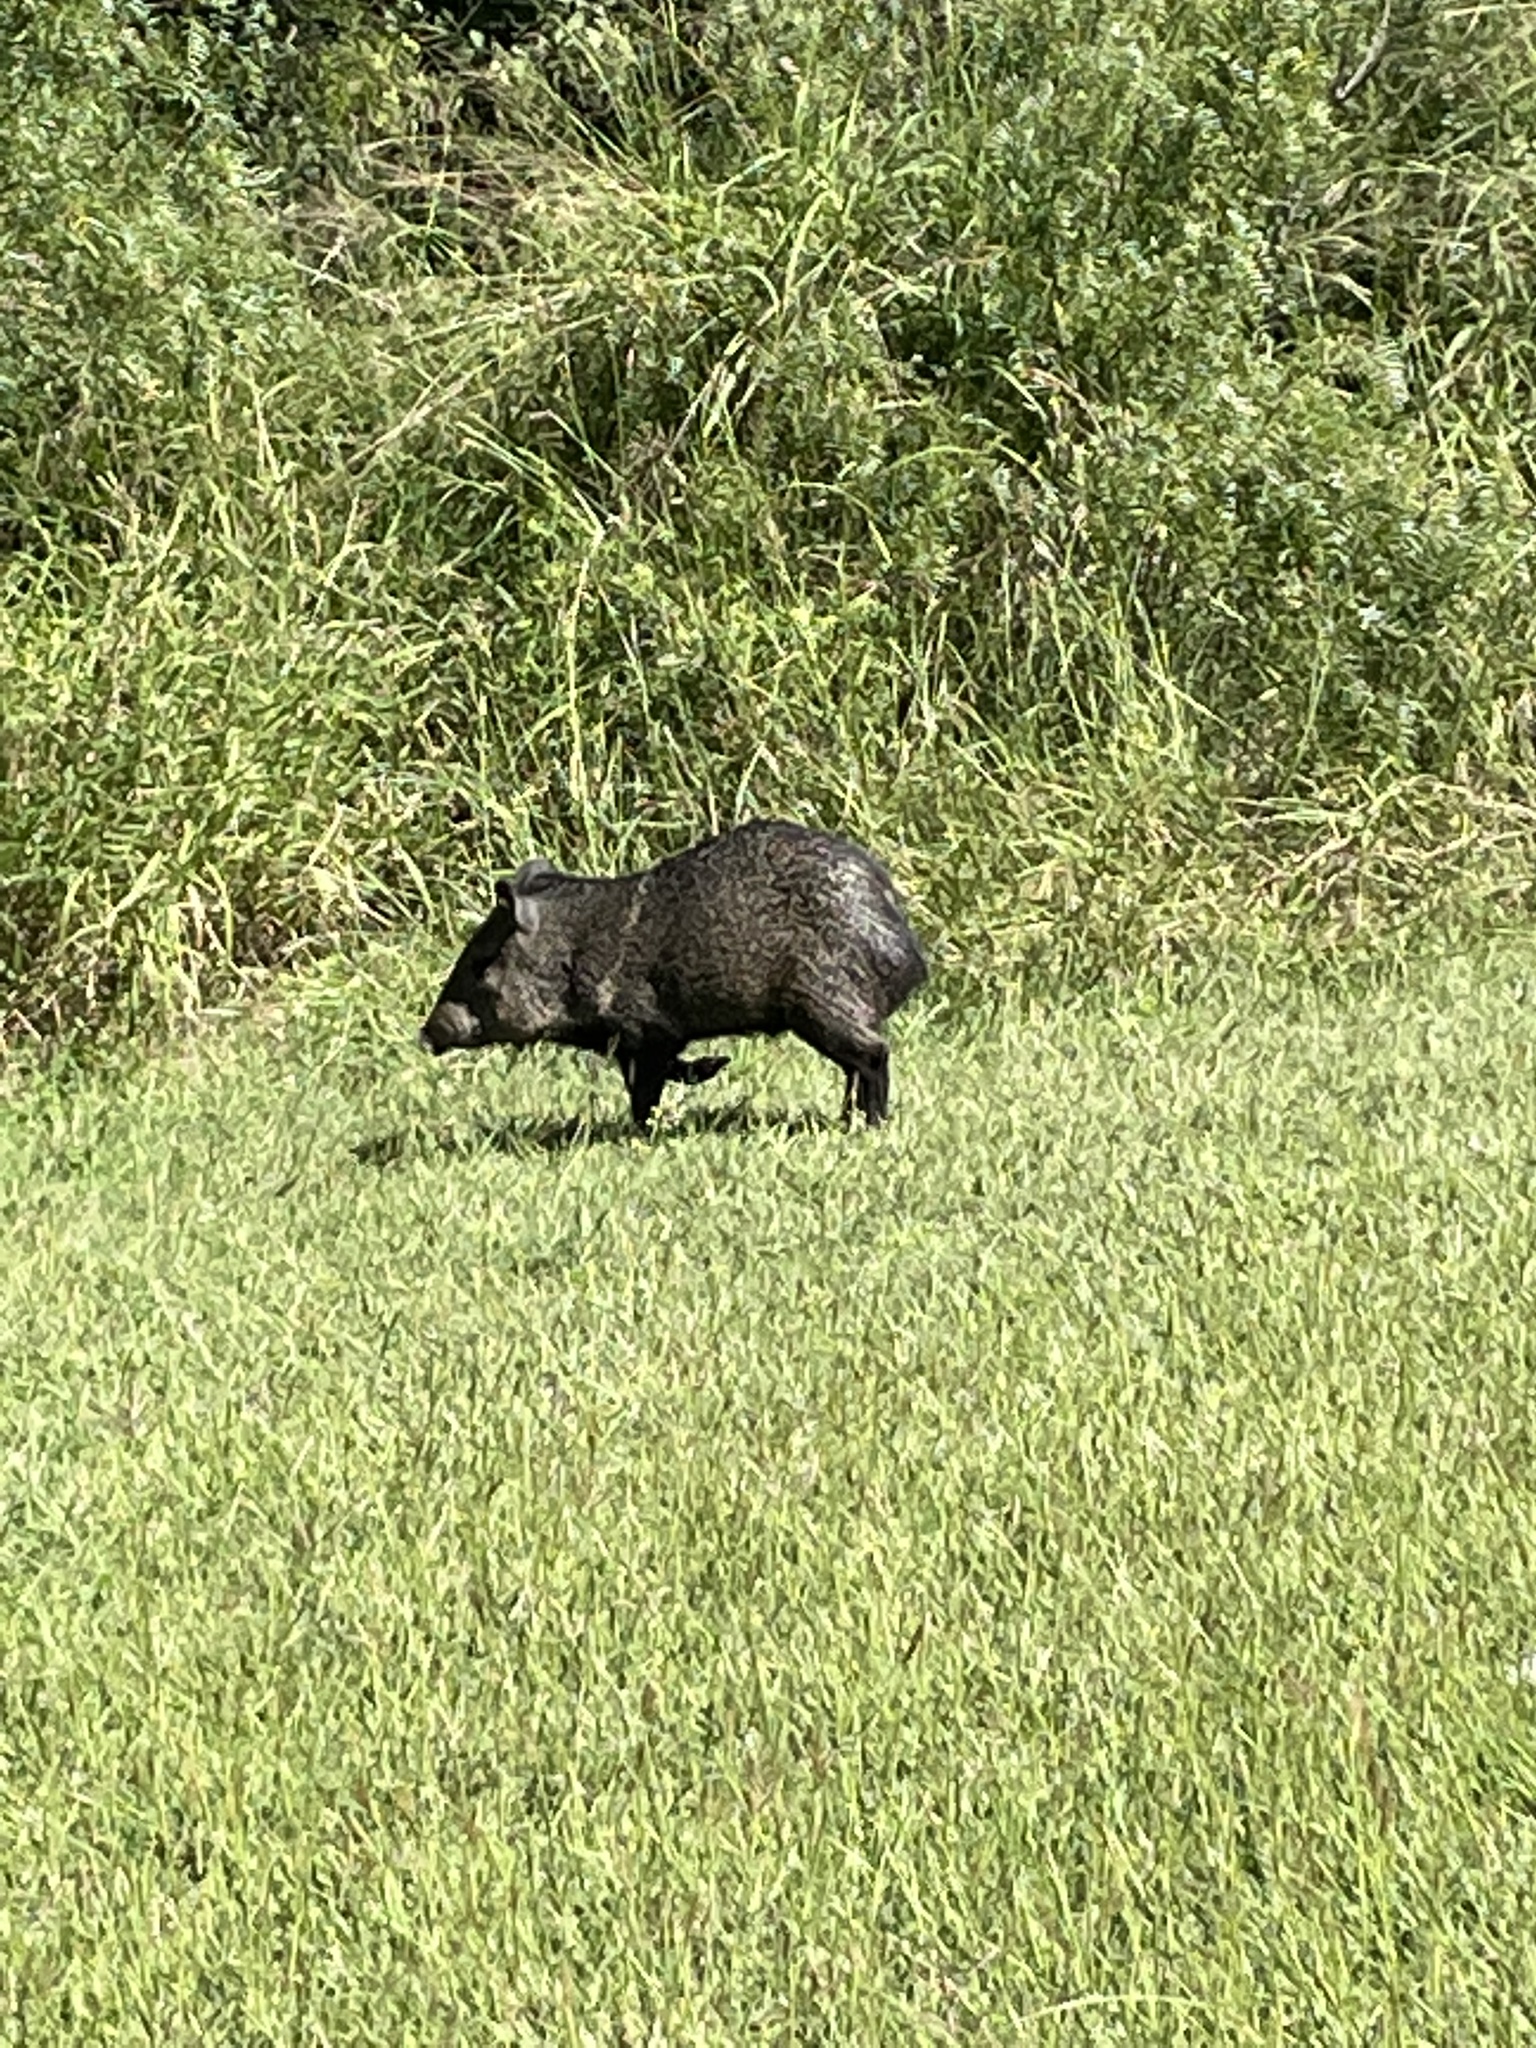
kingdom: Animalia
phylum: Chordata
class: Mammalia
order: Artiodactyla
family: Tayassuidae
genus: Pecari
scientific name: Pecari tajacu
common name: Collared peccary
